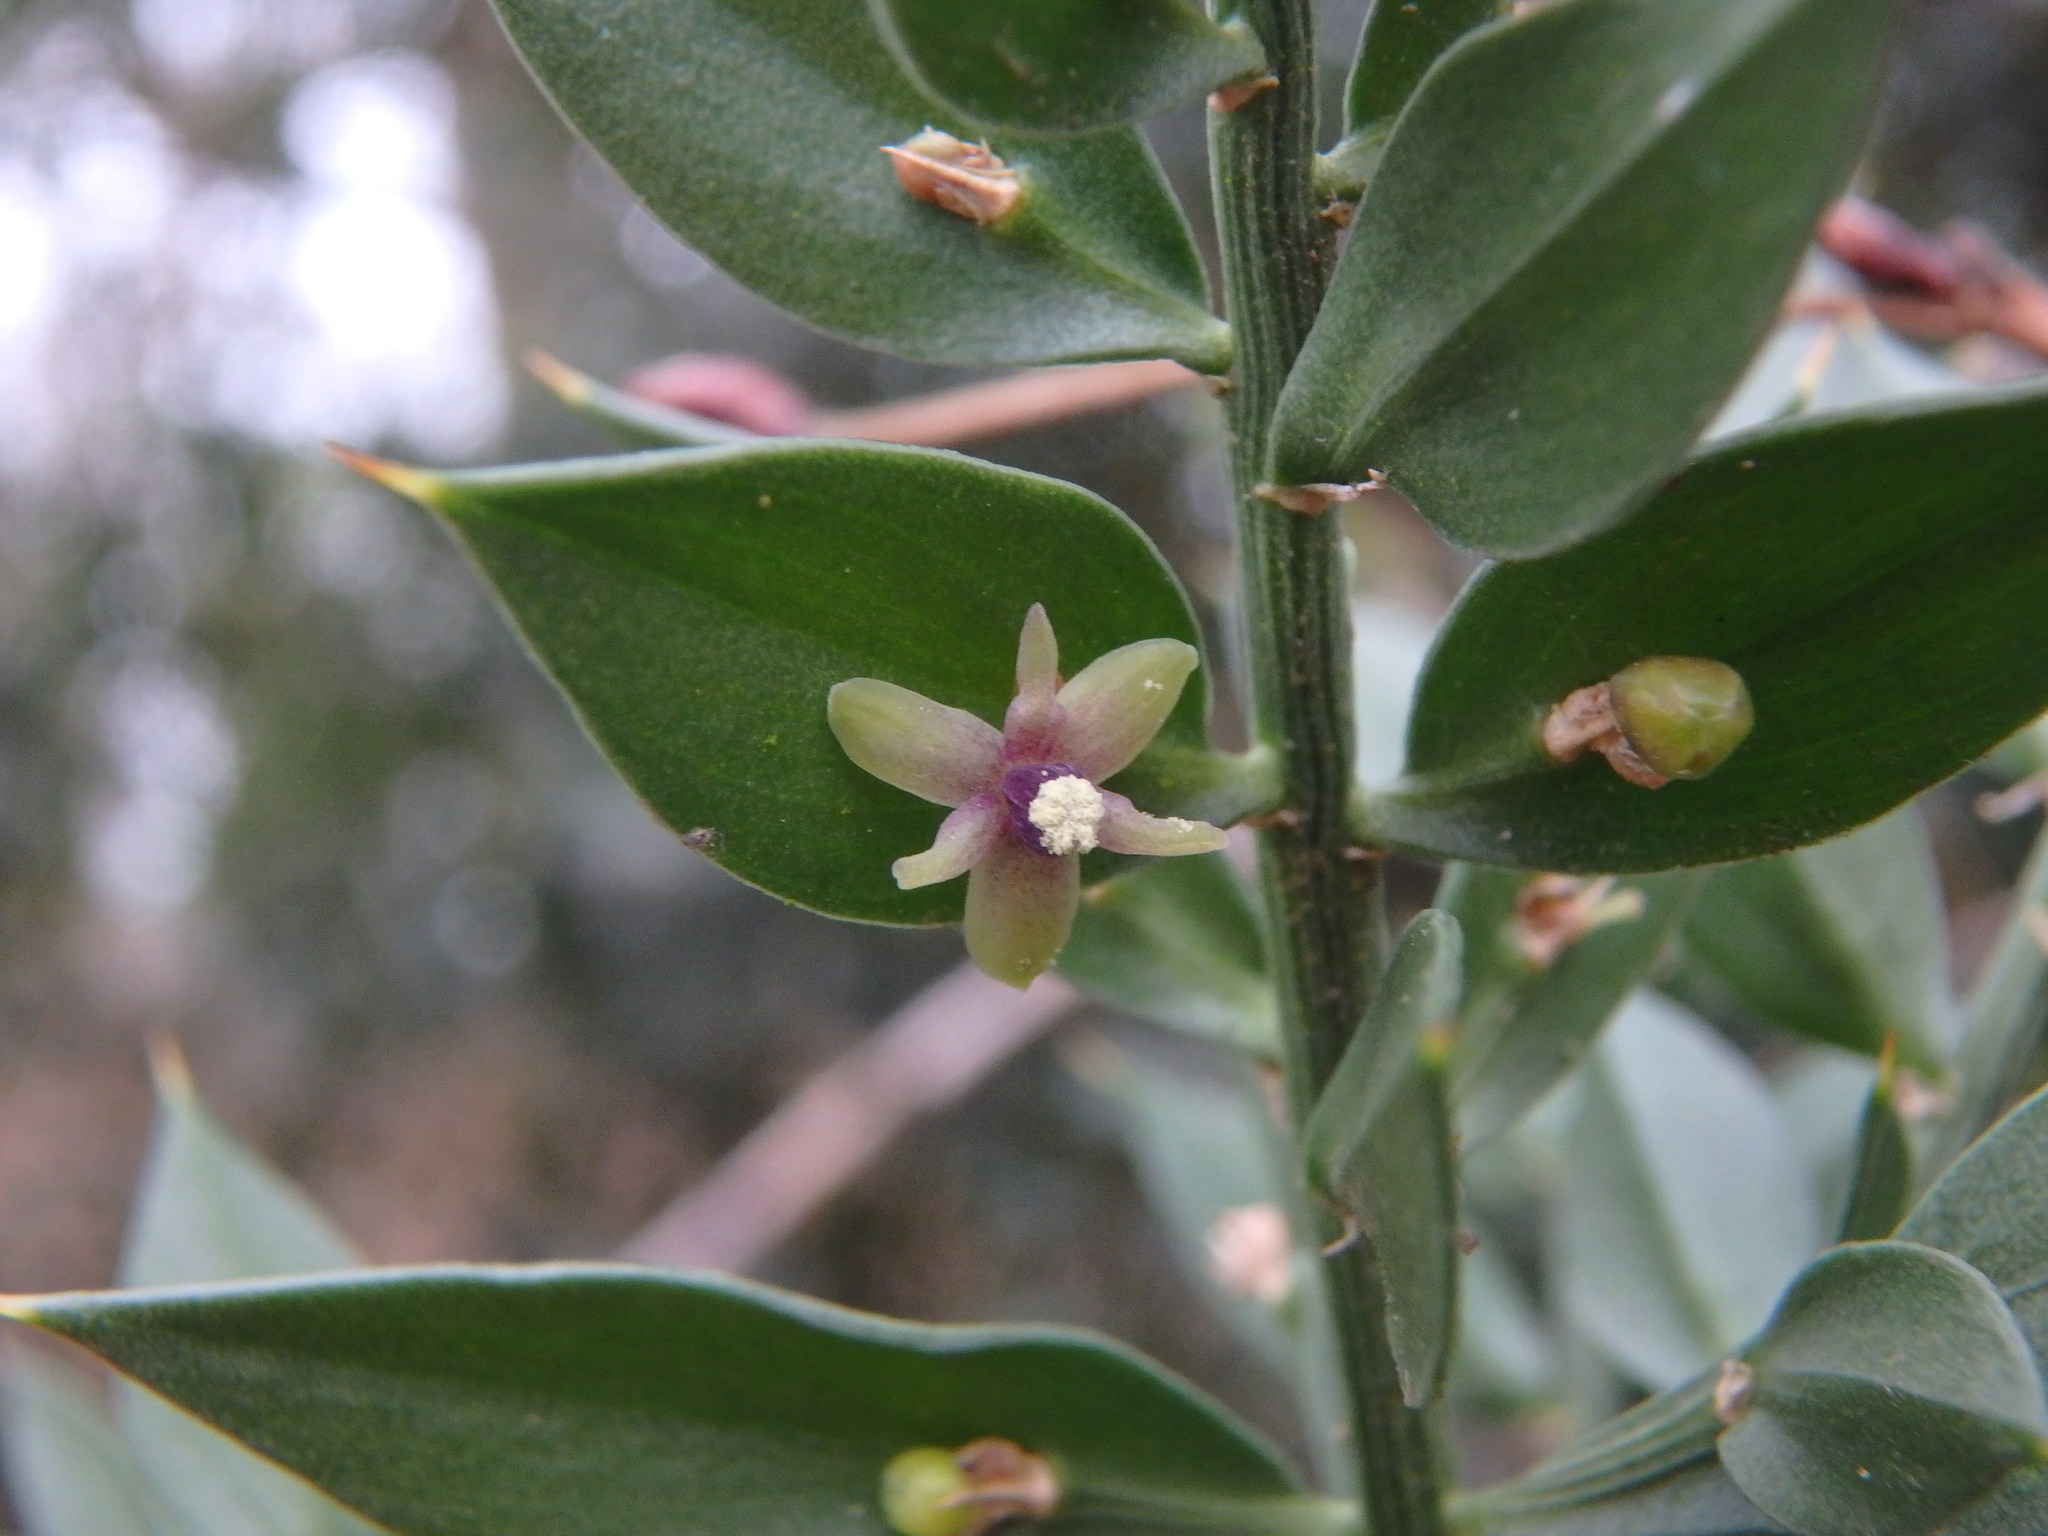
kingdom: Plantae
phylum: Tracheophyta
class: Liliopsida
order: Asparagales
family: Asparagaceae
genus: Ruscus
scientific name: Ruscus aculeatus
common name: Butcher's-broom
